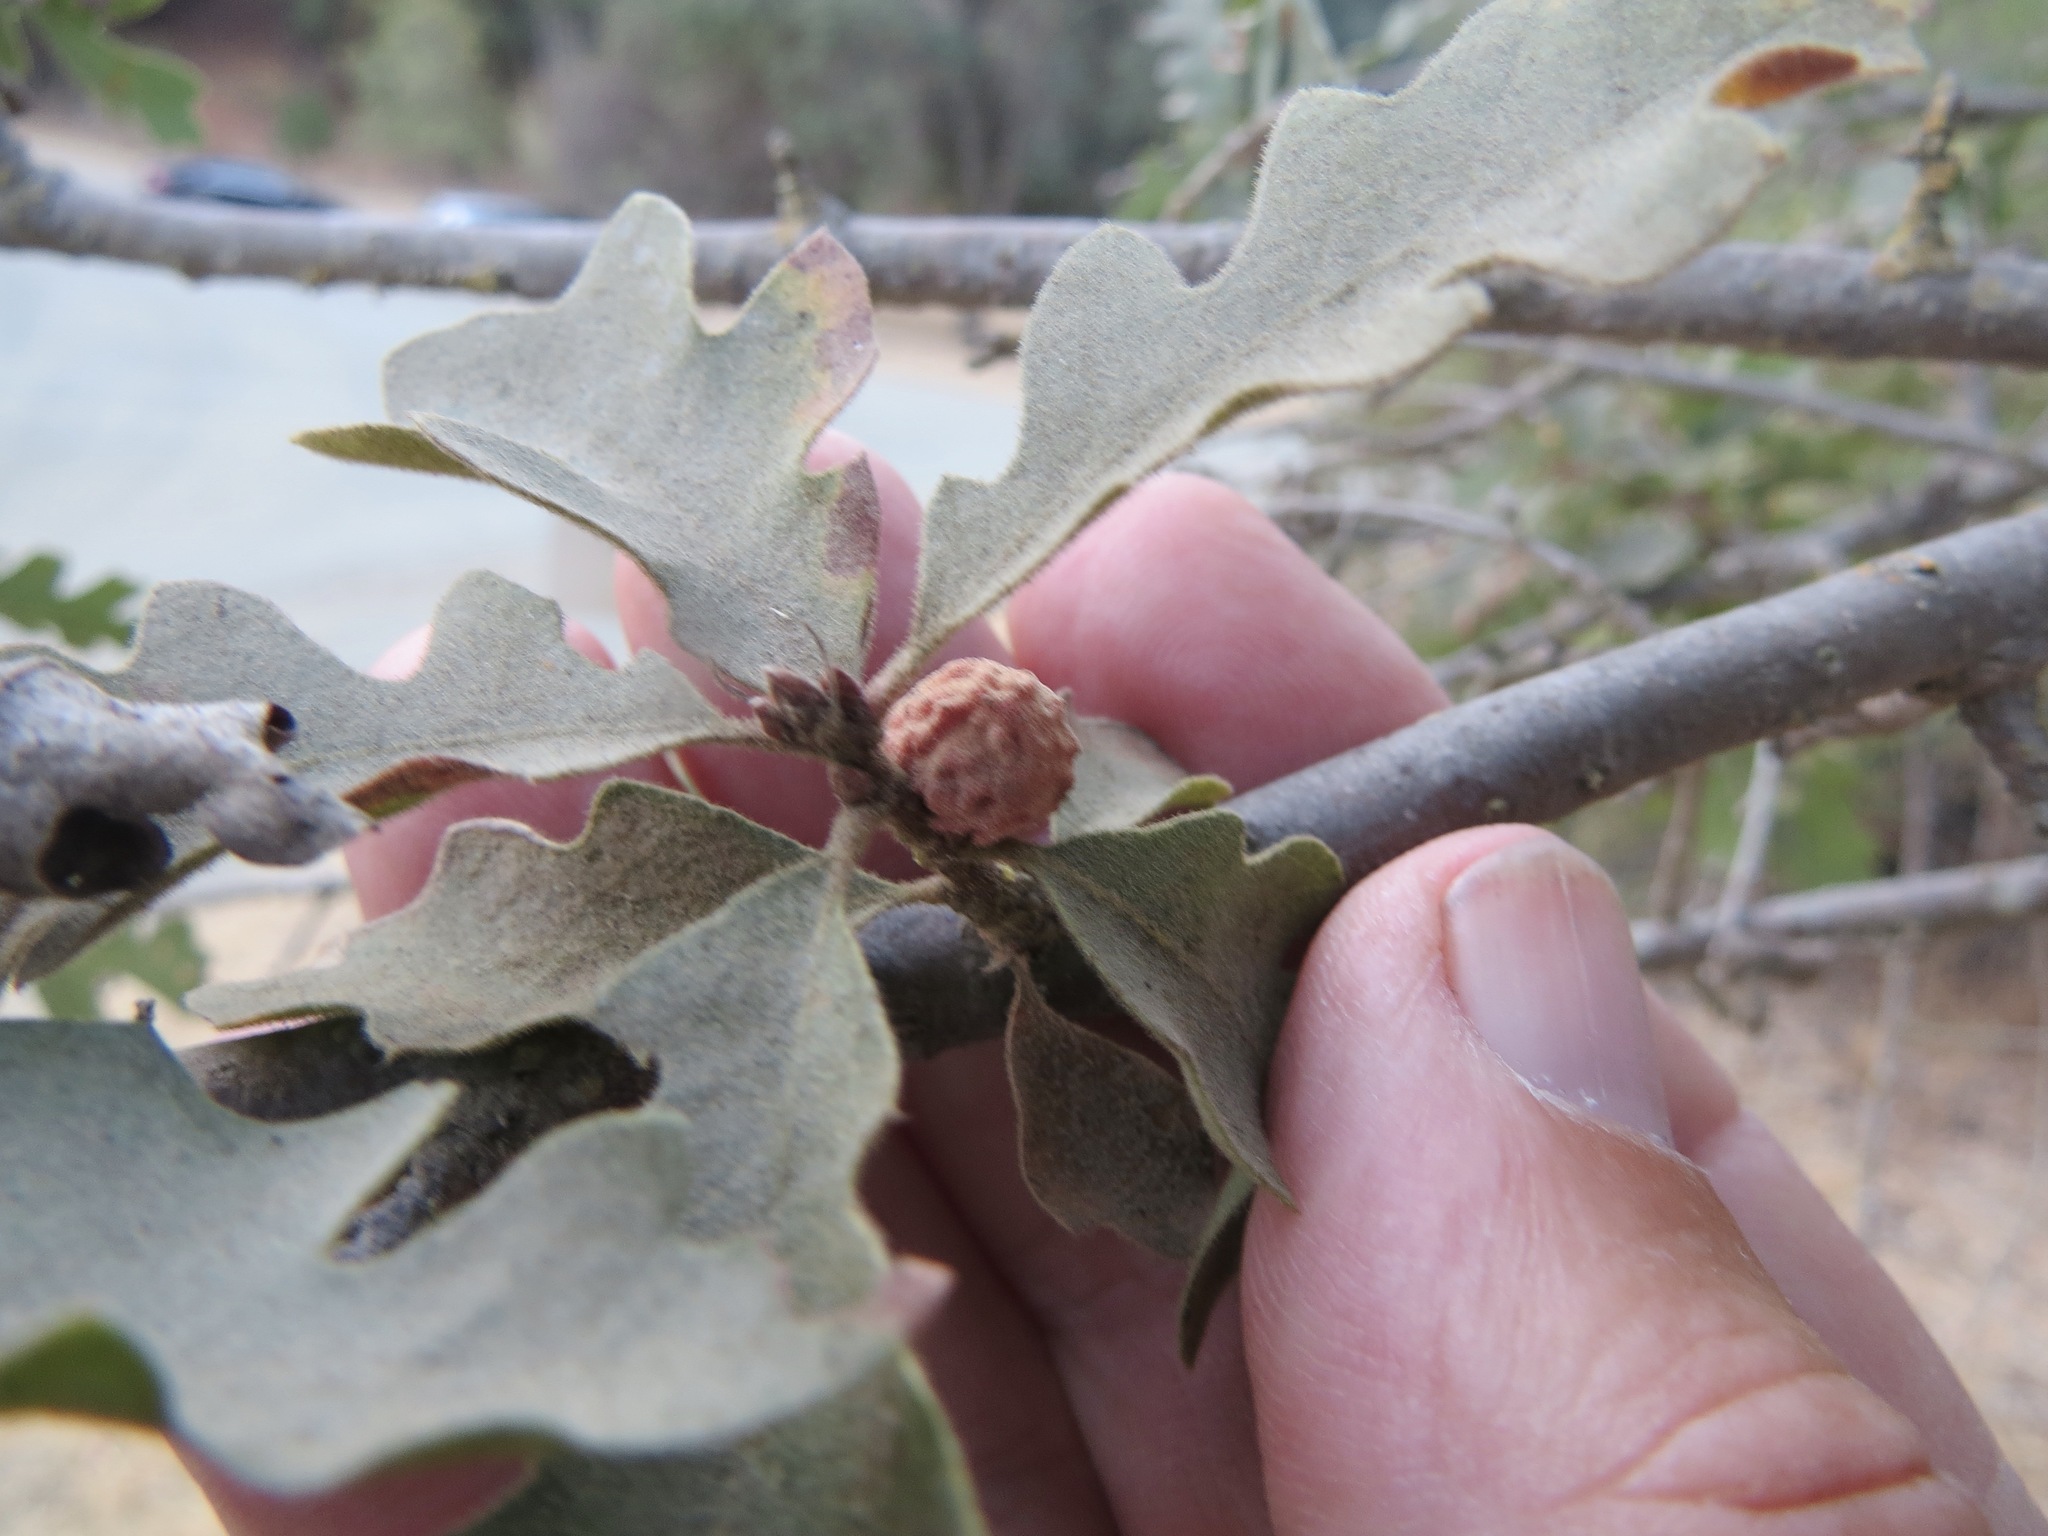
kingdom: Animalia
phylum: Arthropoda
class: Insecta
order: Hymenoptera
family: Cynipidae
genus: Cynips
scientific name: Cynips conspicua
